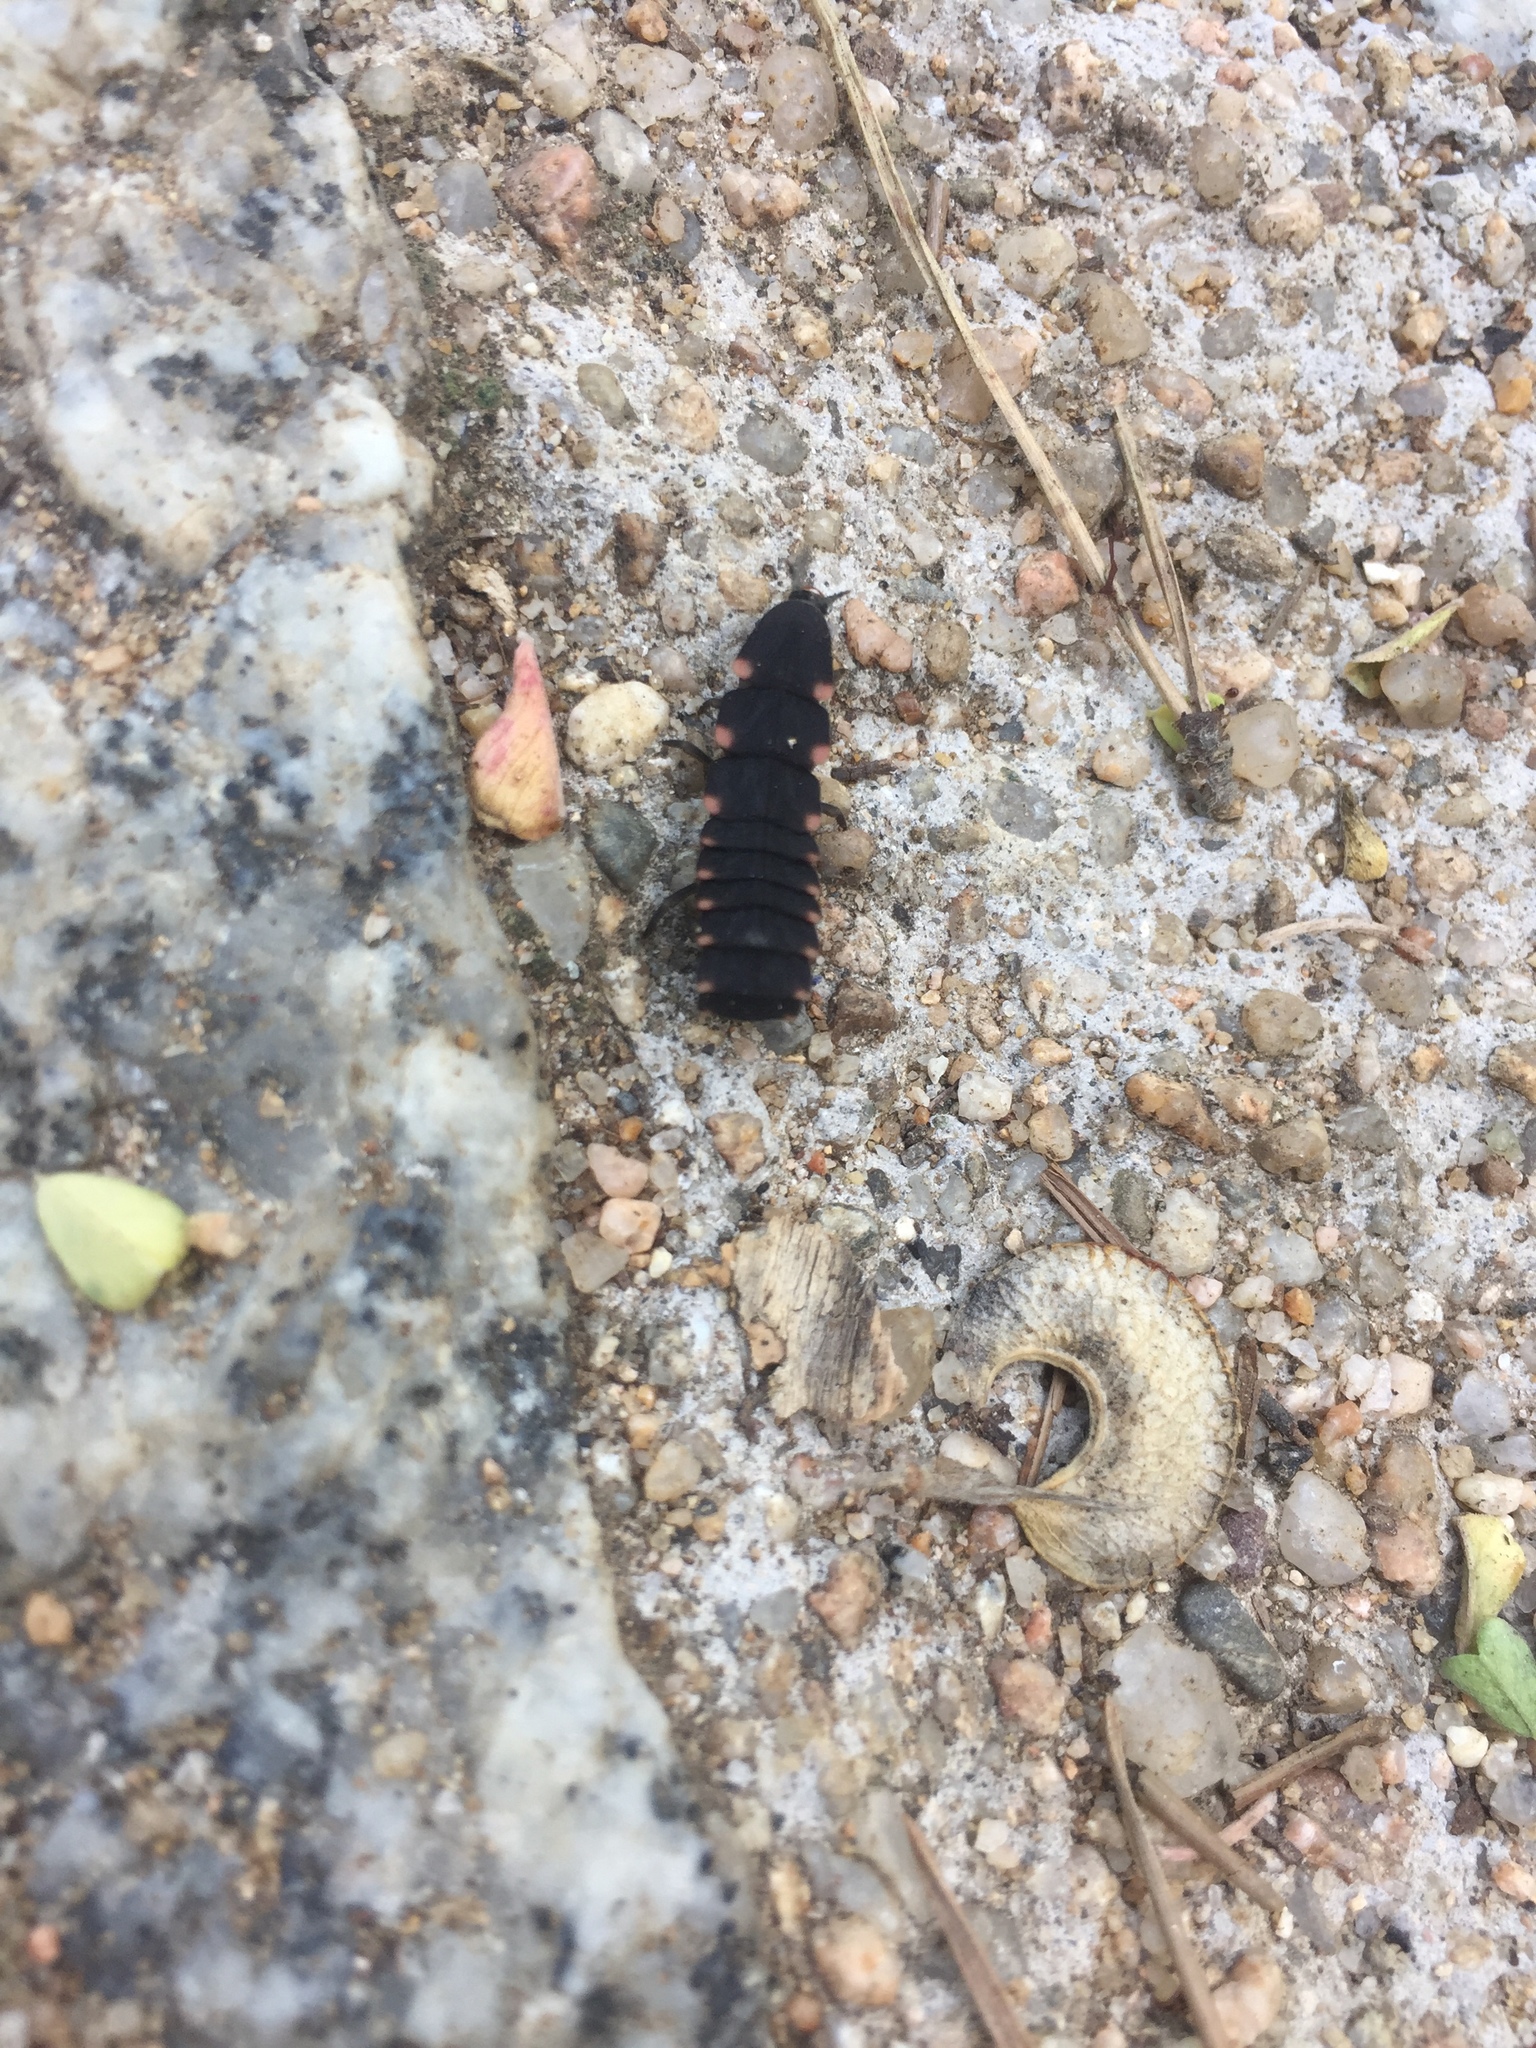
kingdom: Animalia
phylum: Arthropoda
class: Insecta
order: Coleoptera
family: Lampyridae
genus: Lampyris
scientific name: Lampyris
